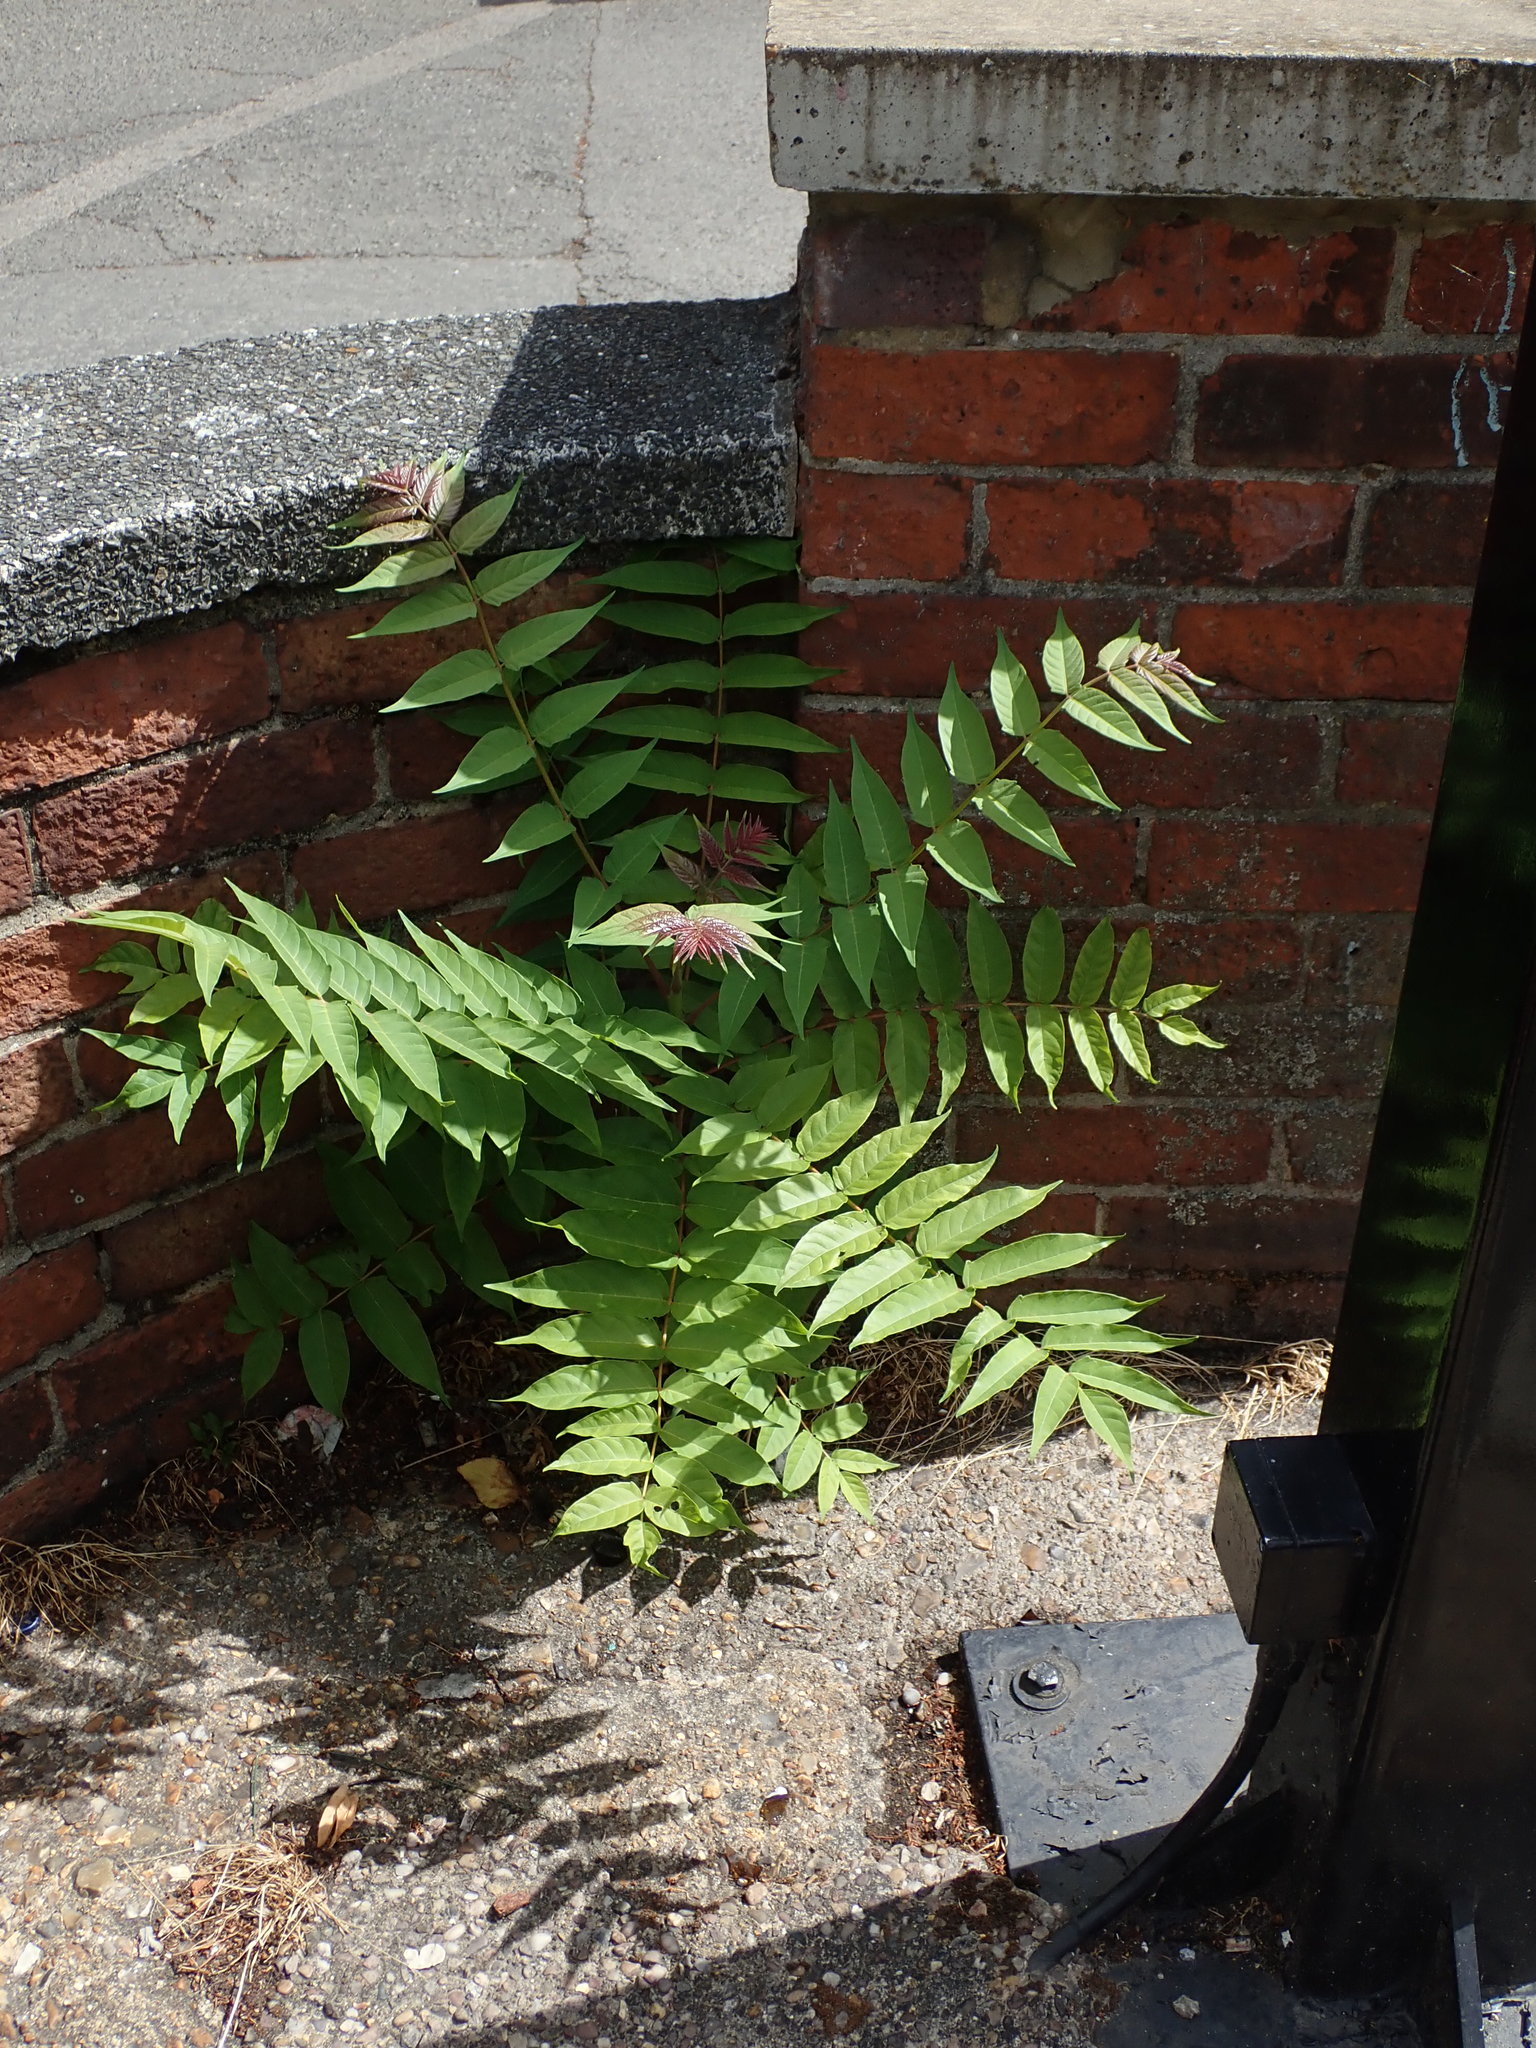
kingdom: Plantae
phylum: Tracheophyta
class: Magnoliopsida
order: Sapindales
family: Simaroubaceae
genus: Ailanthus
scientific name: Ailanthus altissima
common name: Tree-of-heaven
